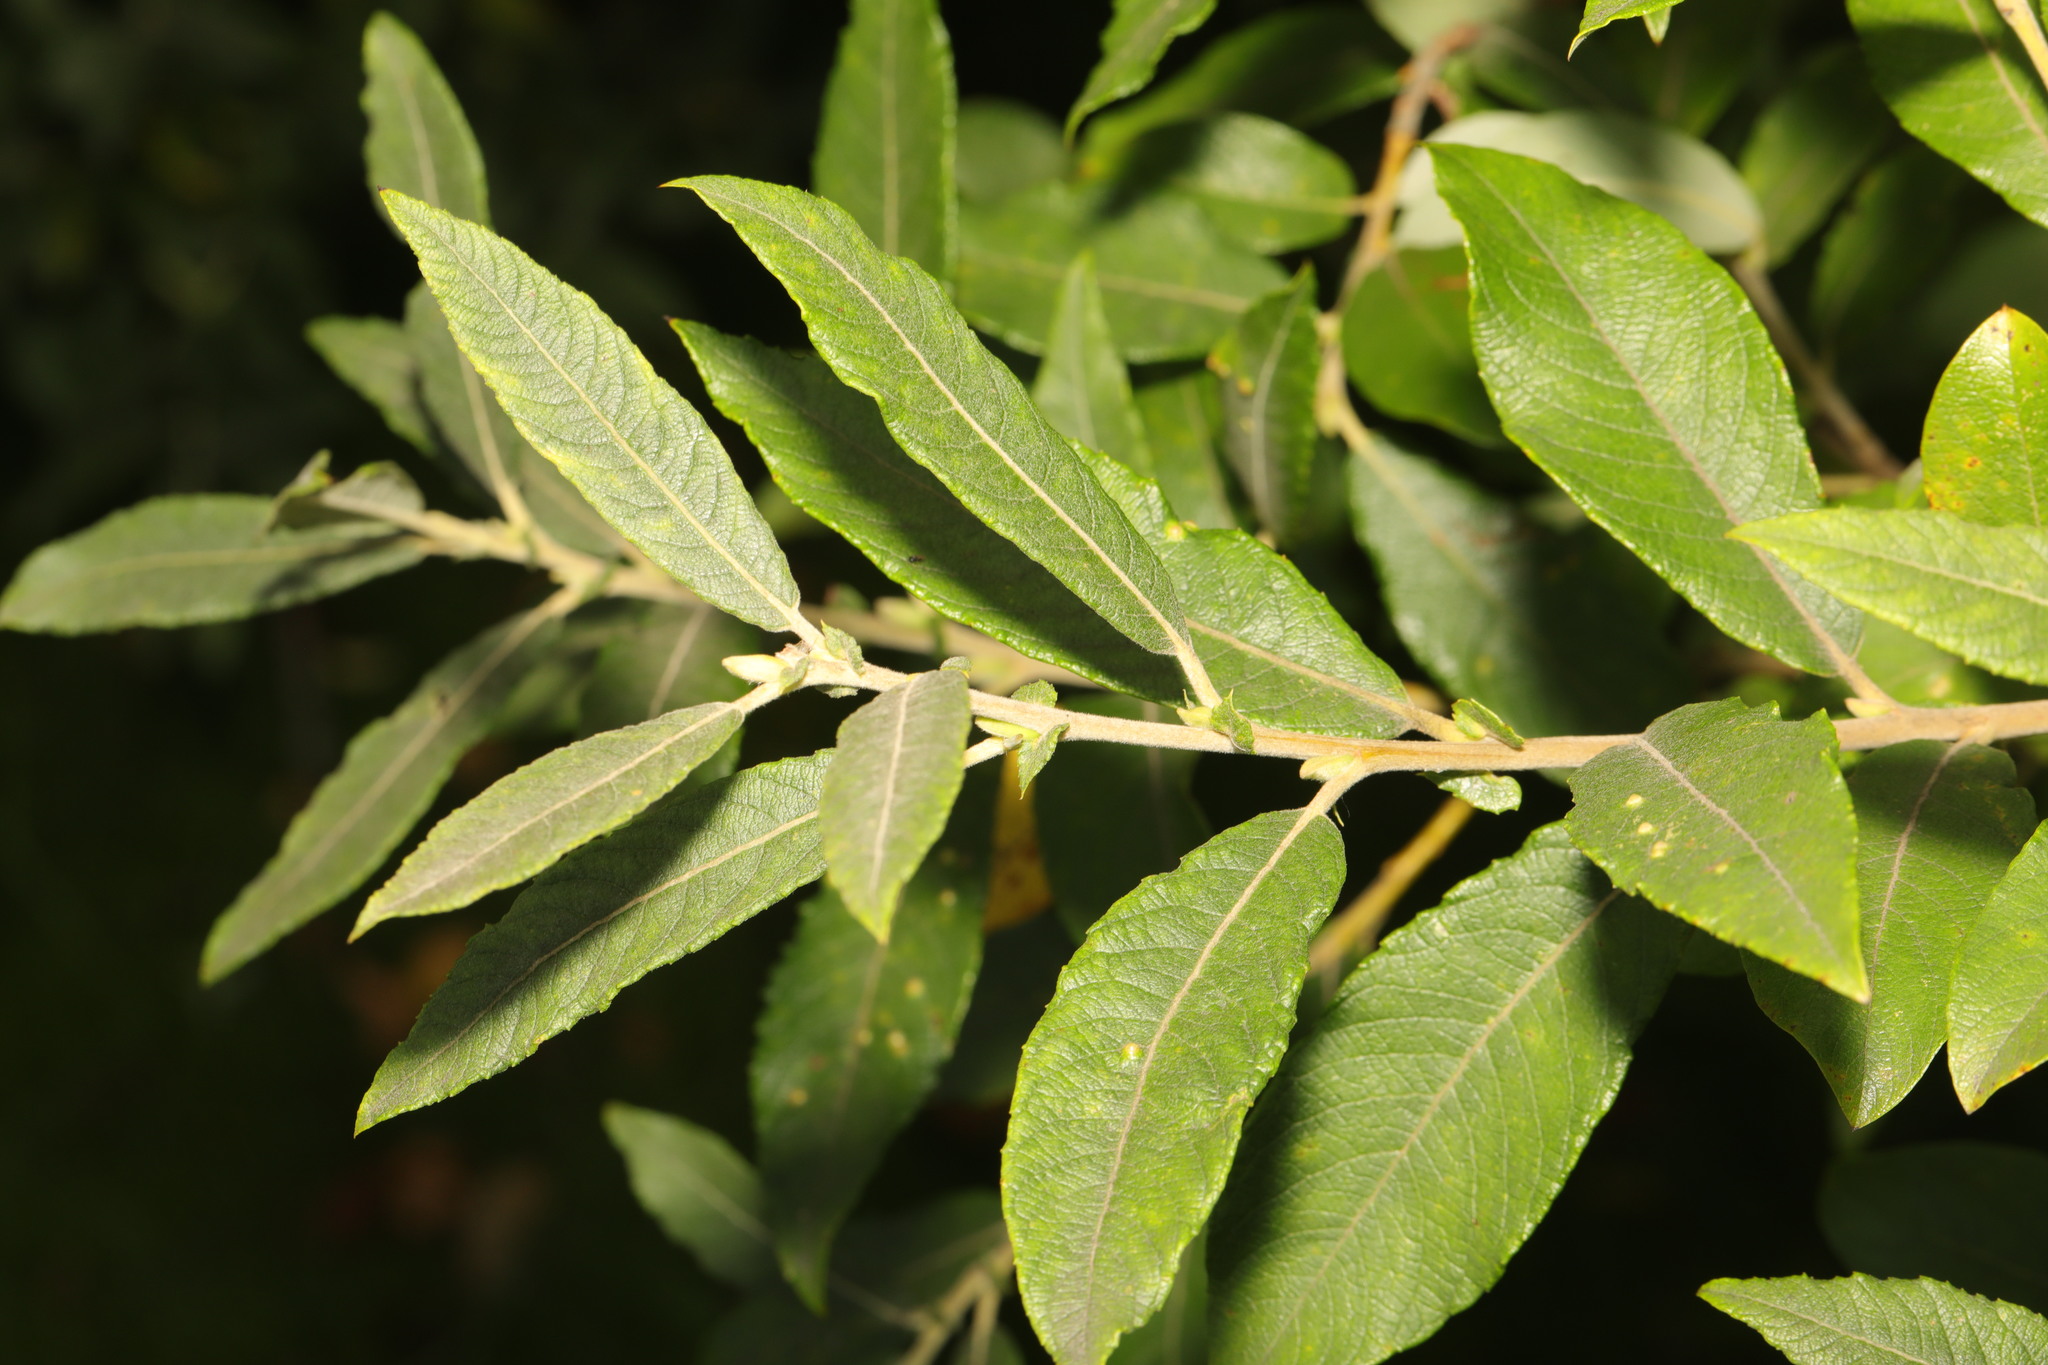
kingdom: Plantae
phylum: Tracheophyta
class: Magnoliopsida
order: Malpighiales
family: Salicaceae
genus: Salix
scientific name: Salix cinerea
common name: Common sallow
